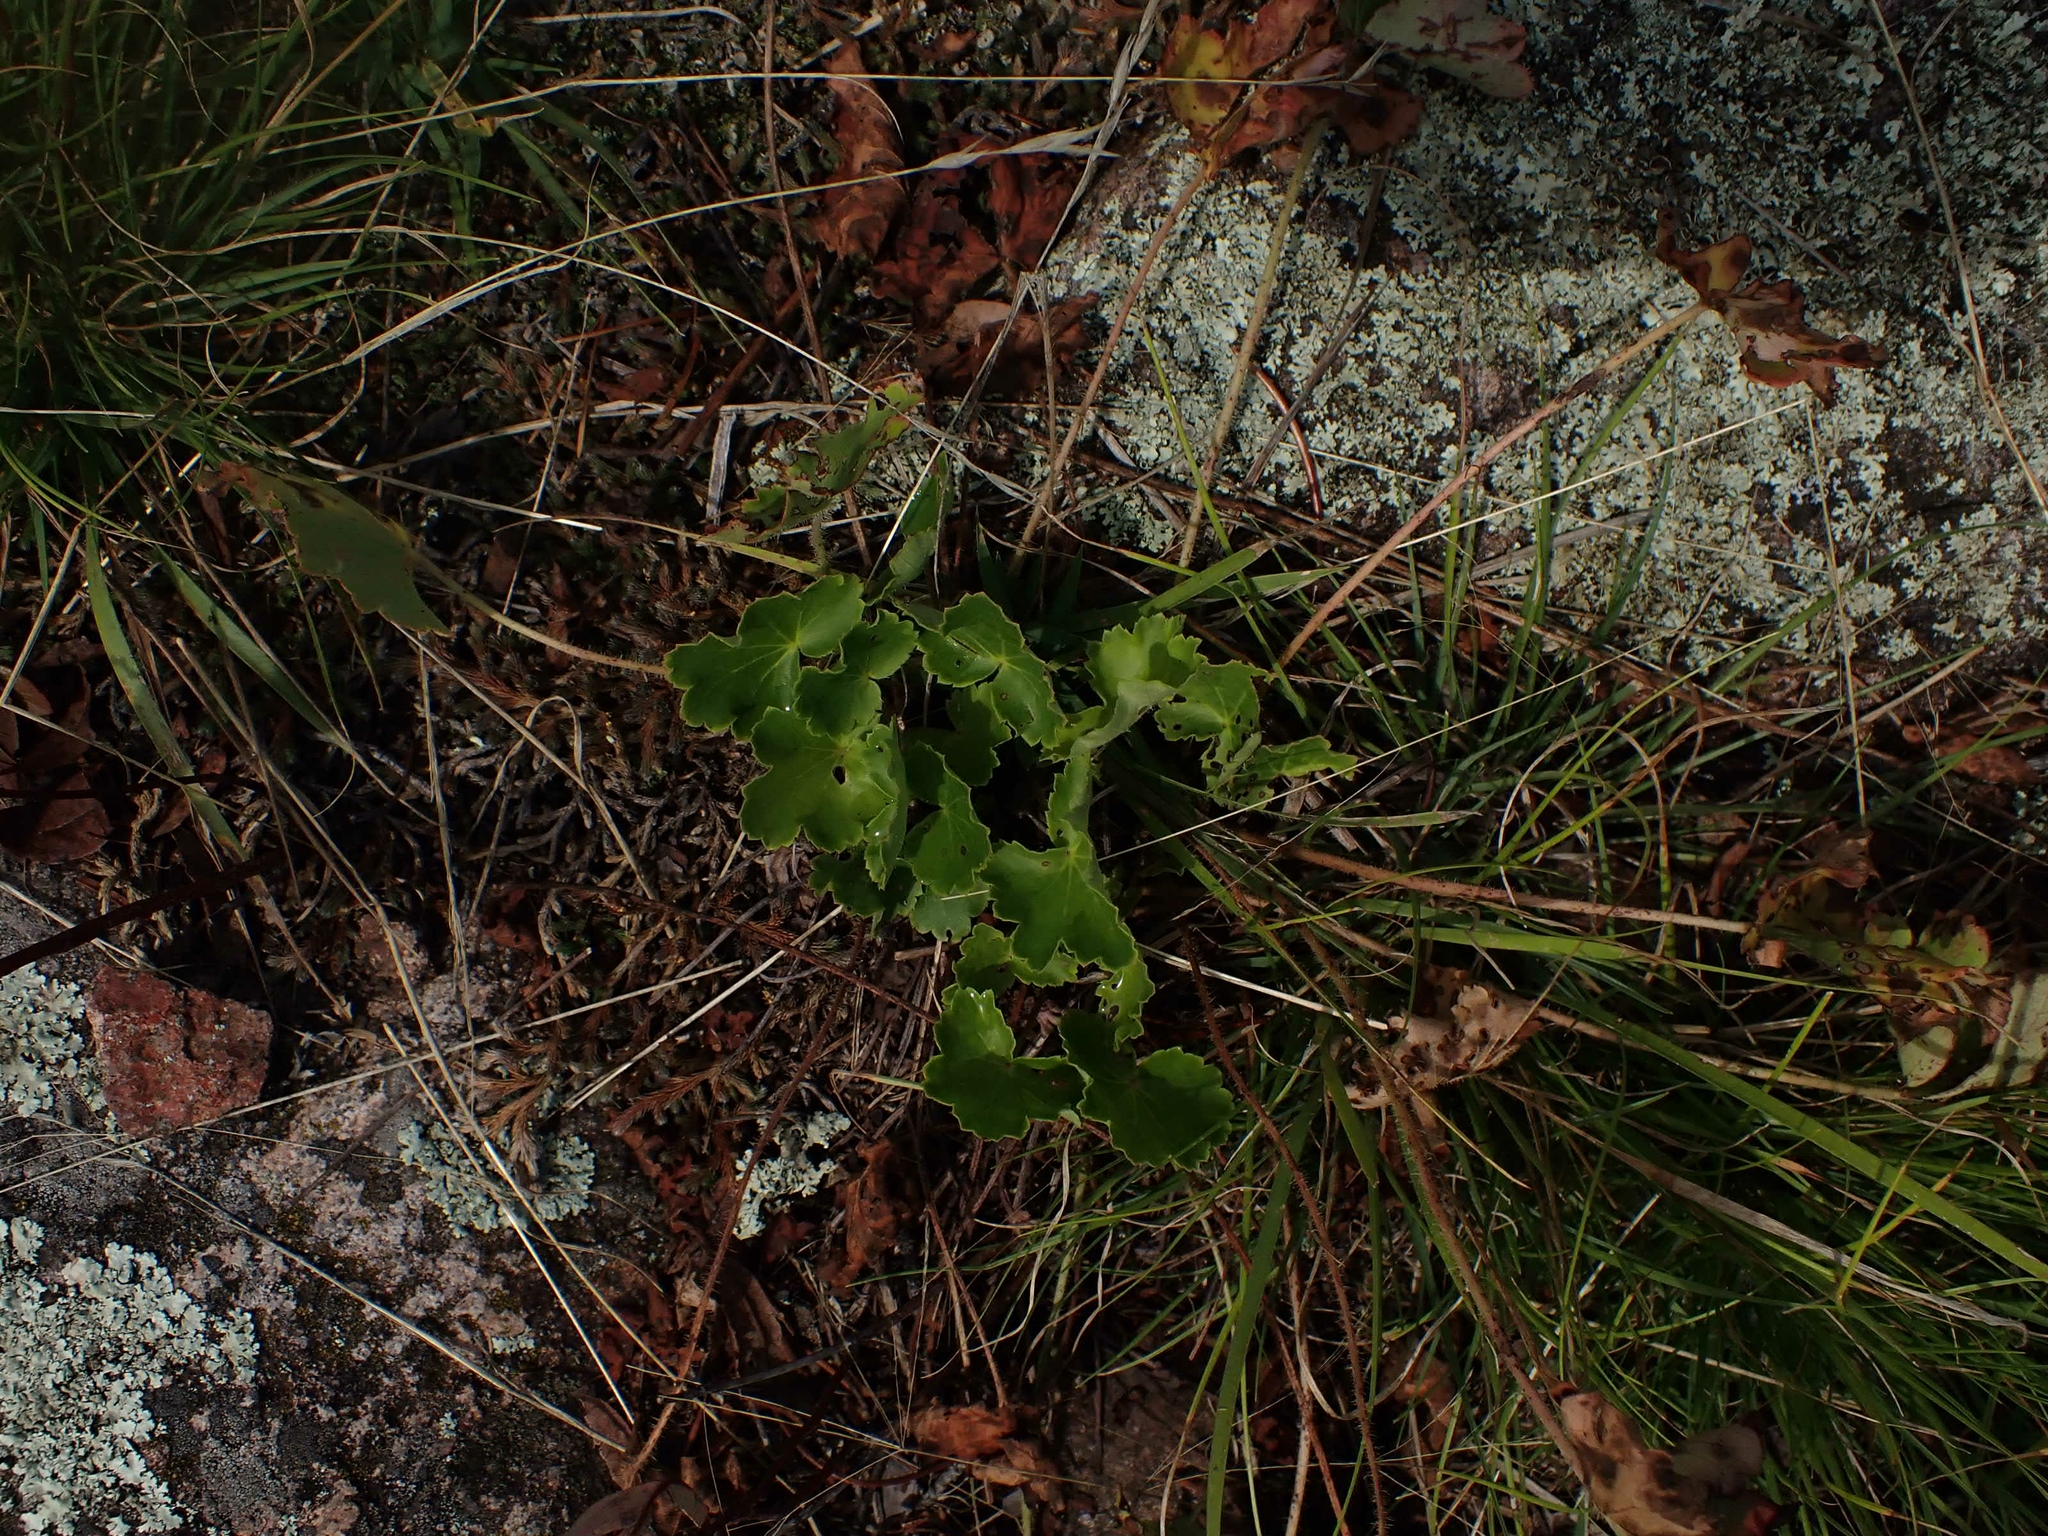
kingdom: Plantae
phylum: Tracheophyta
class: Magnoliopsida
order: Saxifragales
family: Saxifragaceae
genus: Heuchera
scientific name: Heuchera richardsonii
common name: Richardson's alumroot
